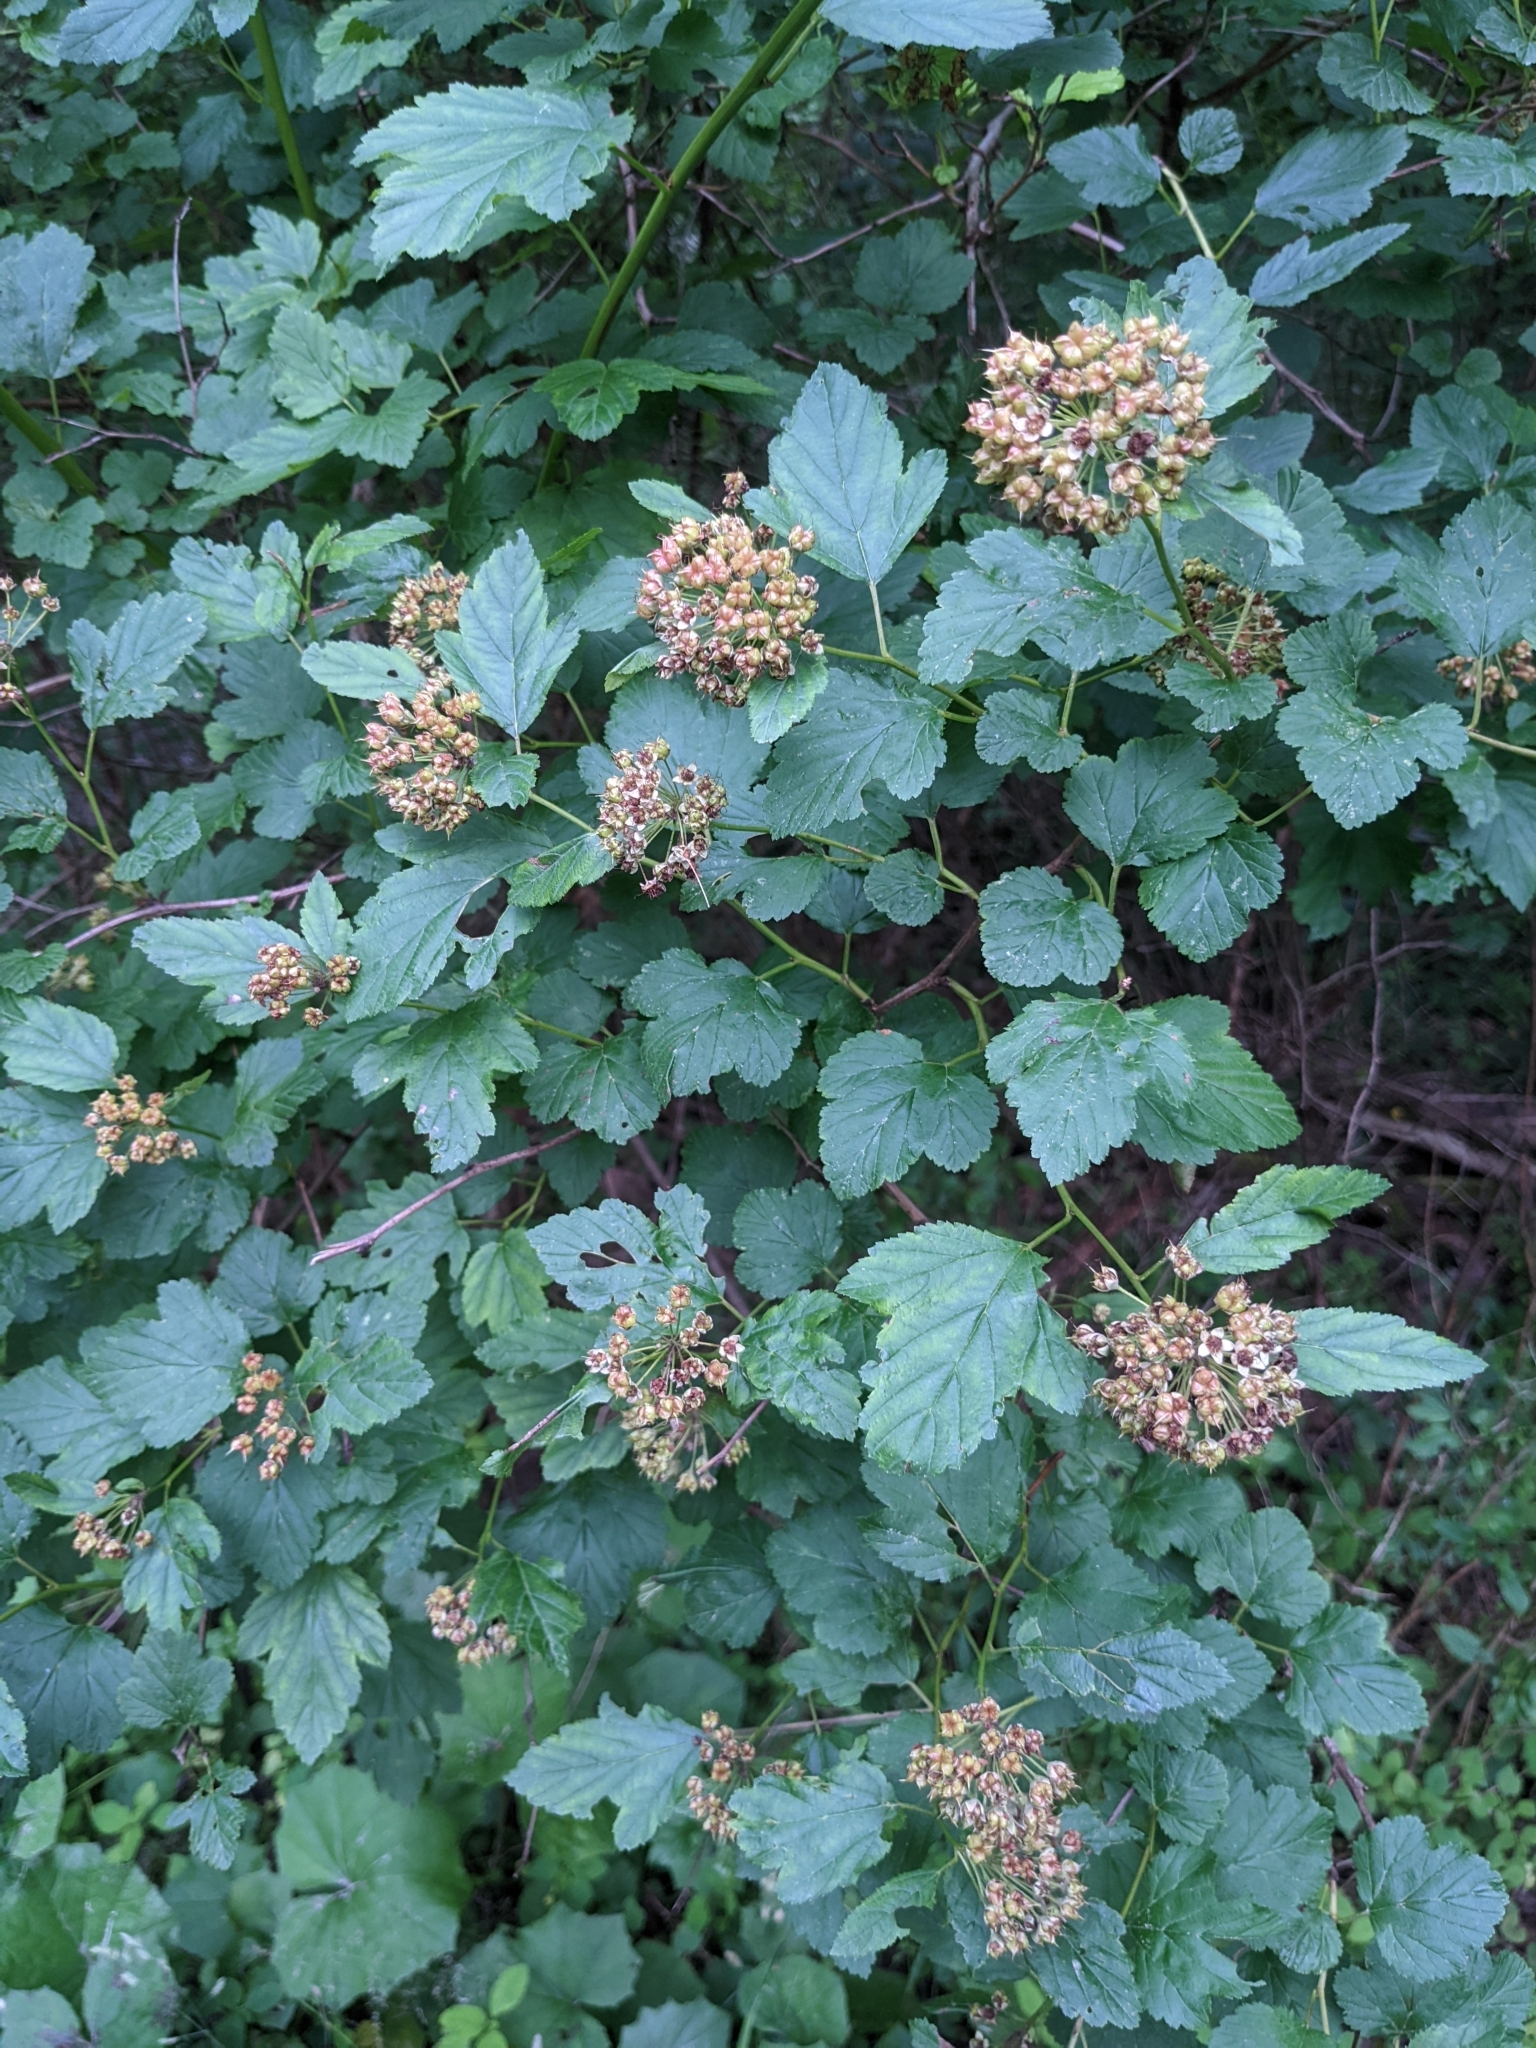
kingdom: Plantae
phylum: Tracheophyta
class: Magnoliopsida
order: Rosales
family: Rosaceae
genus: Physocarpus
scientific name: Physocarpus opulifolius
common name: Ninebark
